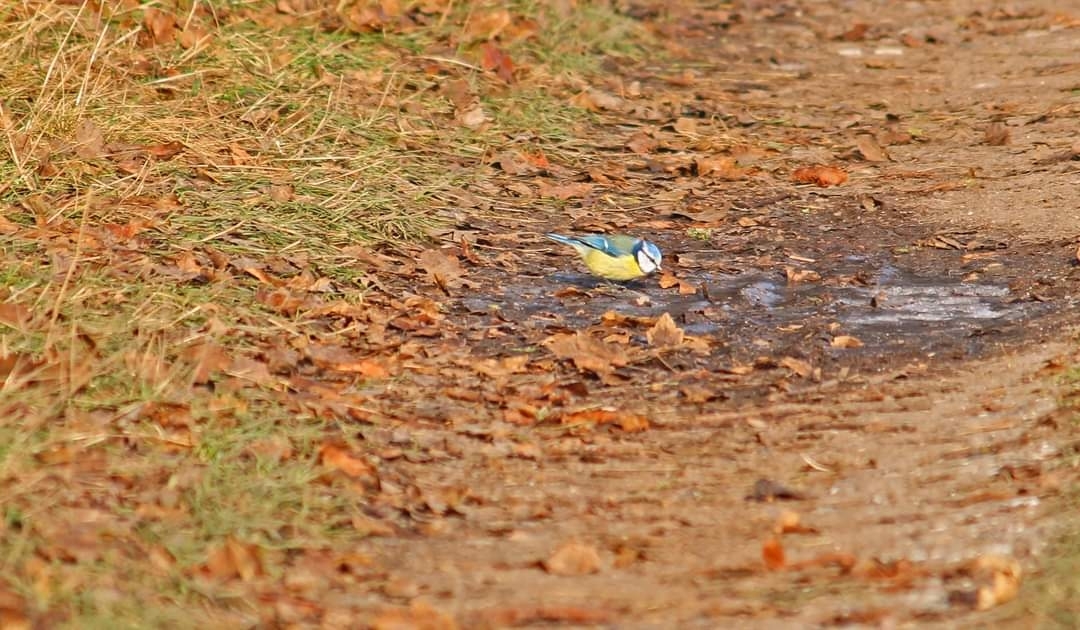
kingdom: Animalia
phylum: Chordata
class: Aves
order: Passeriformes
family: Paridae
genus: Cyanistes
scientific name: Cyanistes caeruleus
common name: Eurasian blue tit
